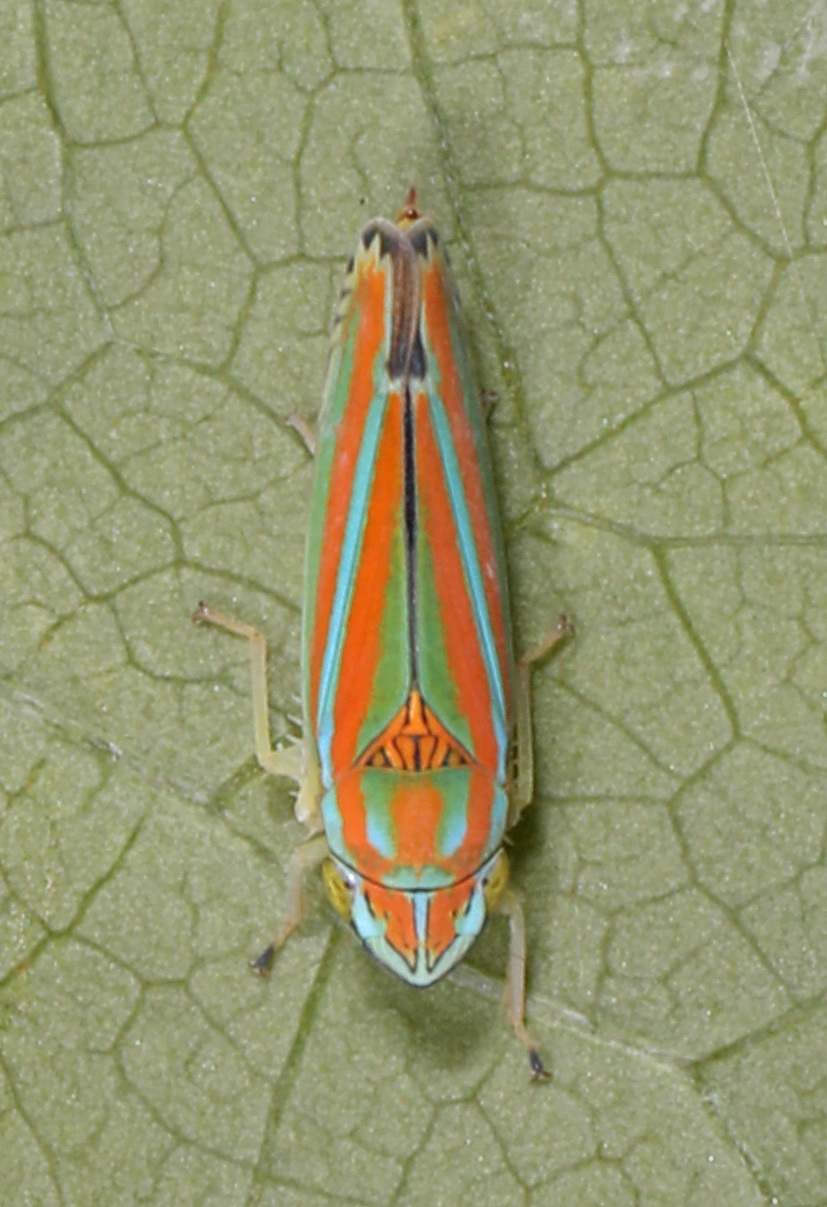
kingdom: Animalia
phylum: Arthropoda
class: Insecta
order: Hemiptera
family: Cicadellidae
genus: Graphocephala
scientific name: Graphocephala versuta
